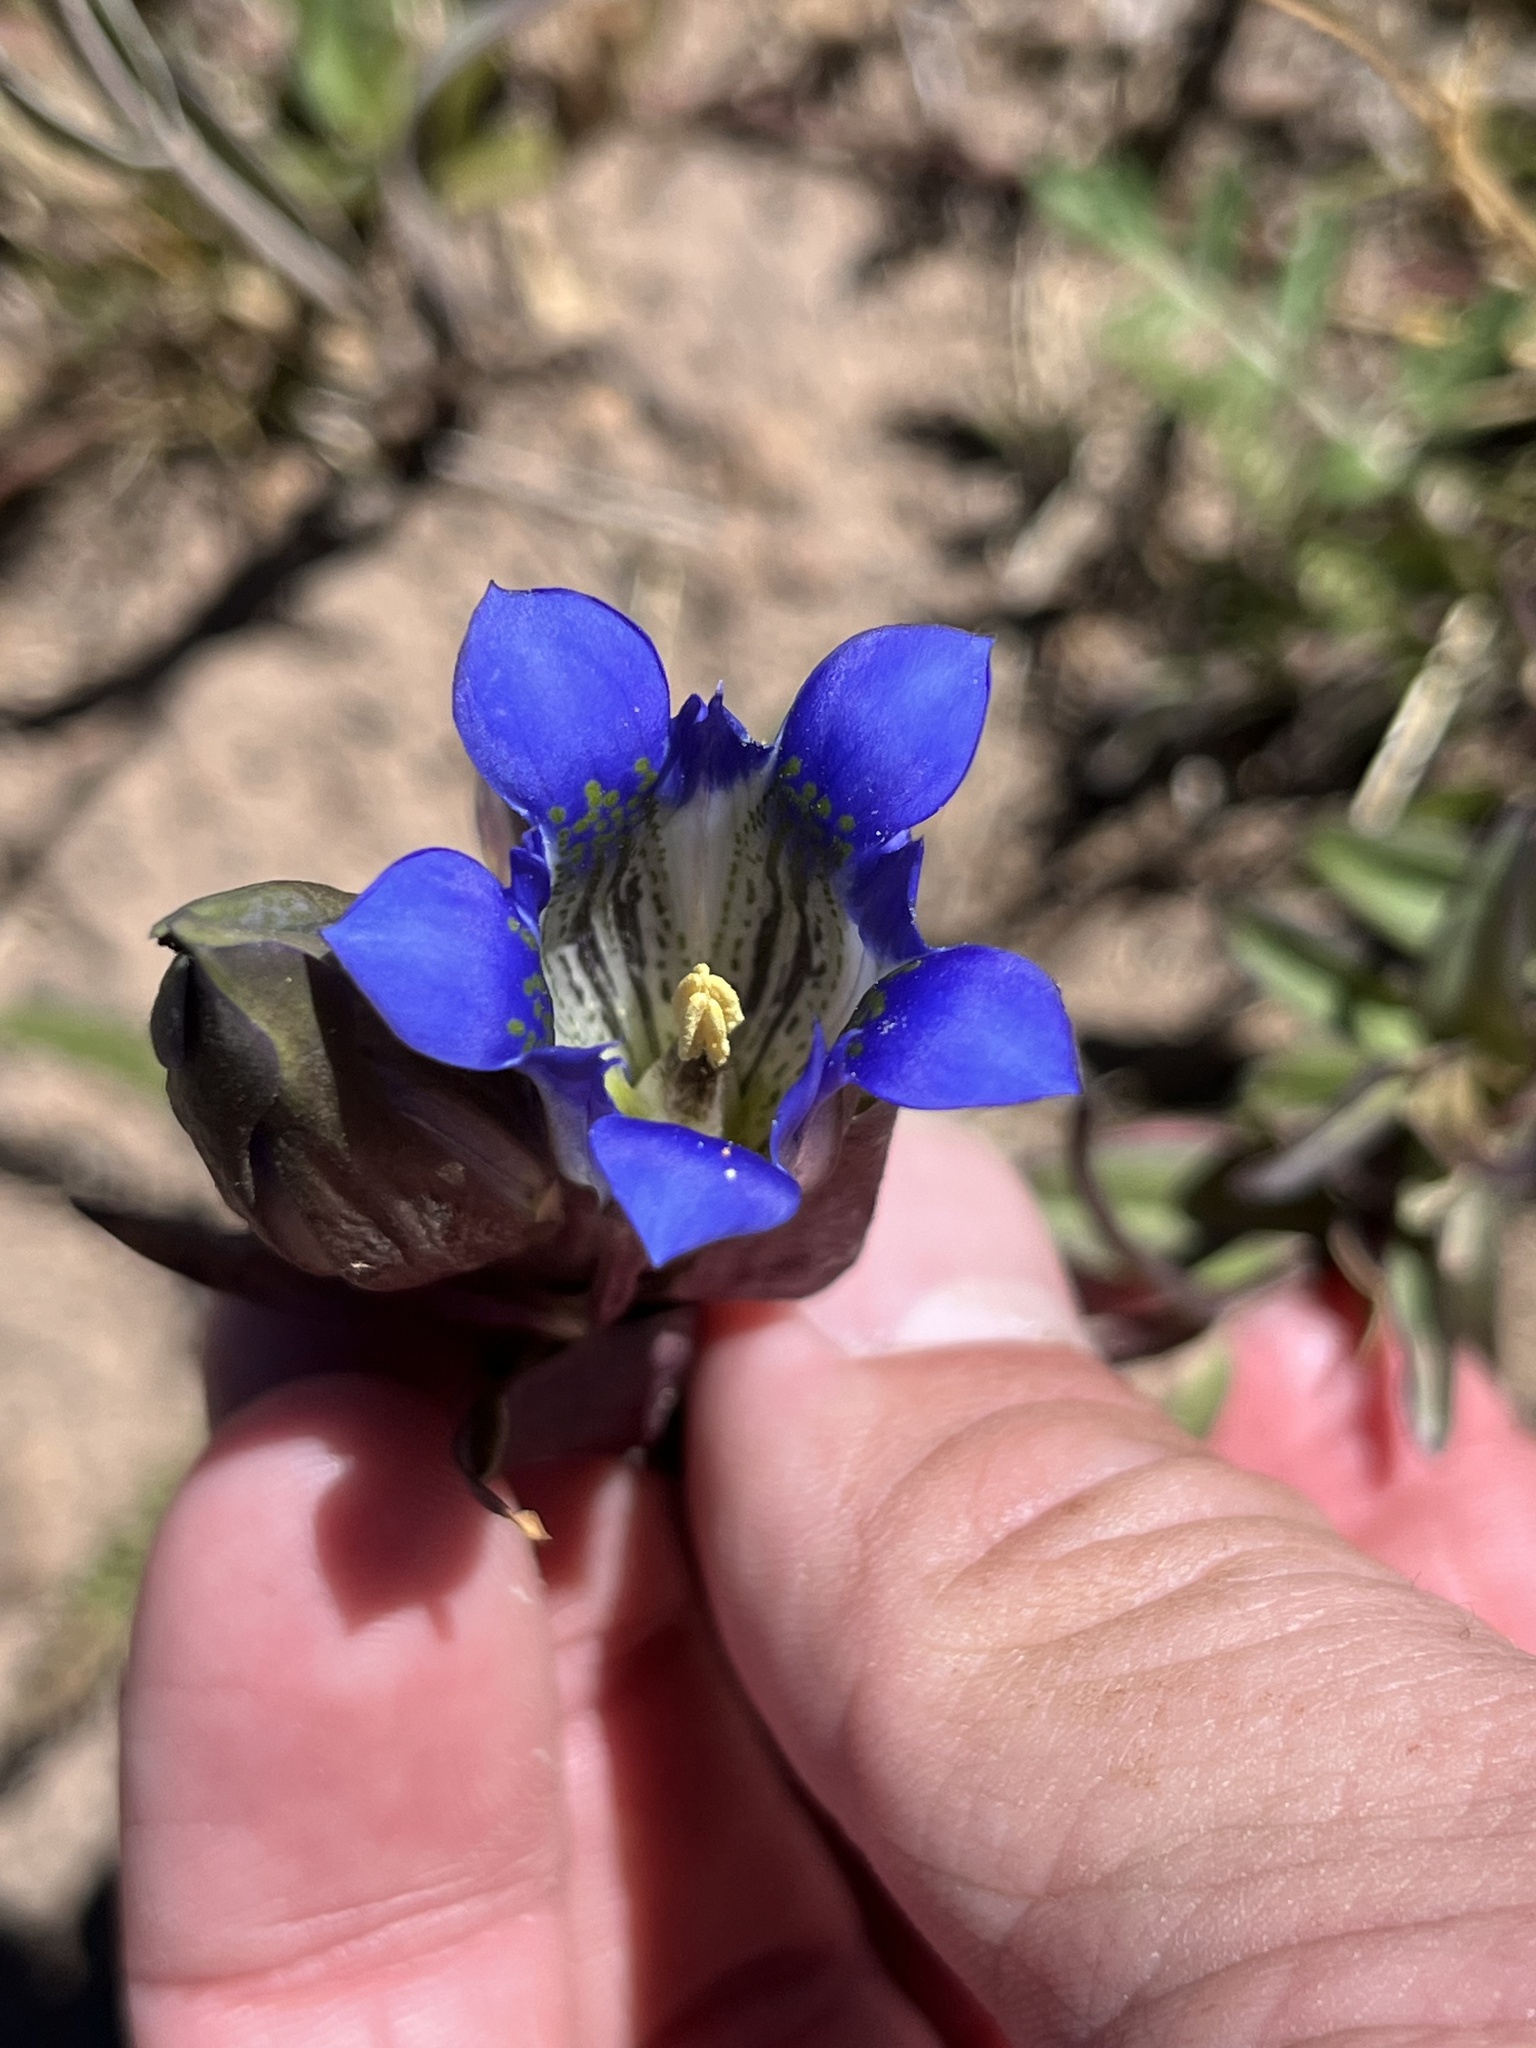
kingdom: Plantae
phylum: Tracheophyta
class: Magnoliopsida
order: Gentianales
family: Gentianaceae
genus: Gentiana
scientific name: Gentiana parryi
